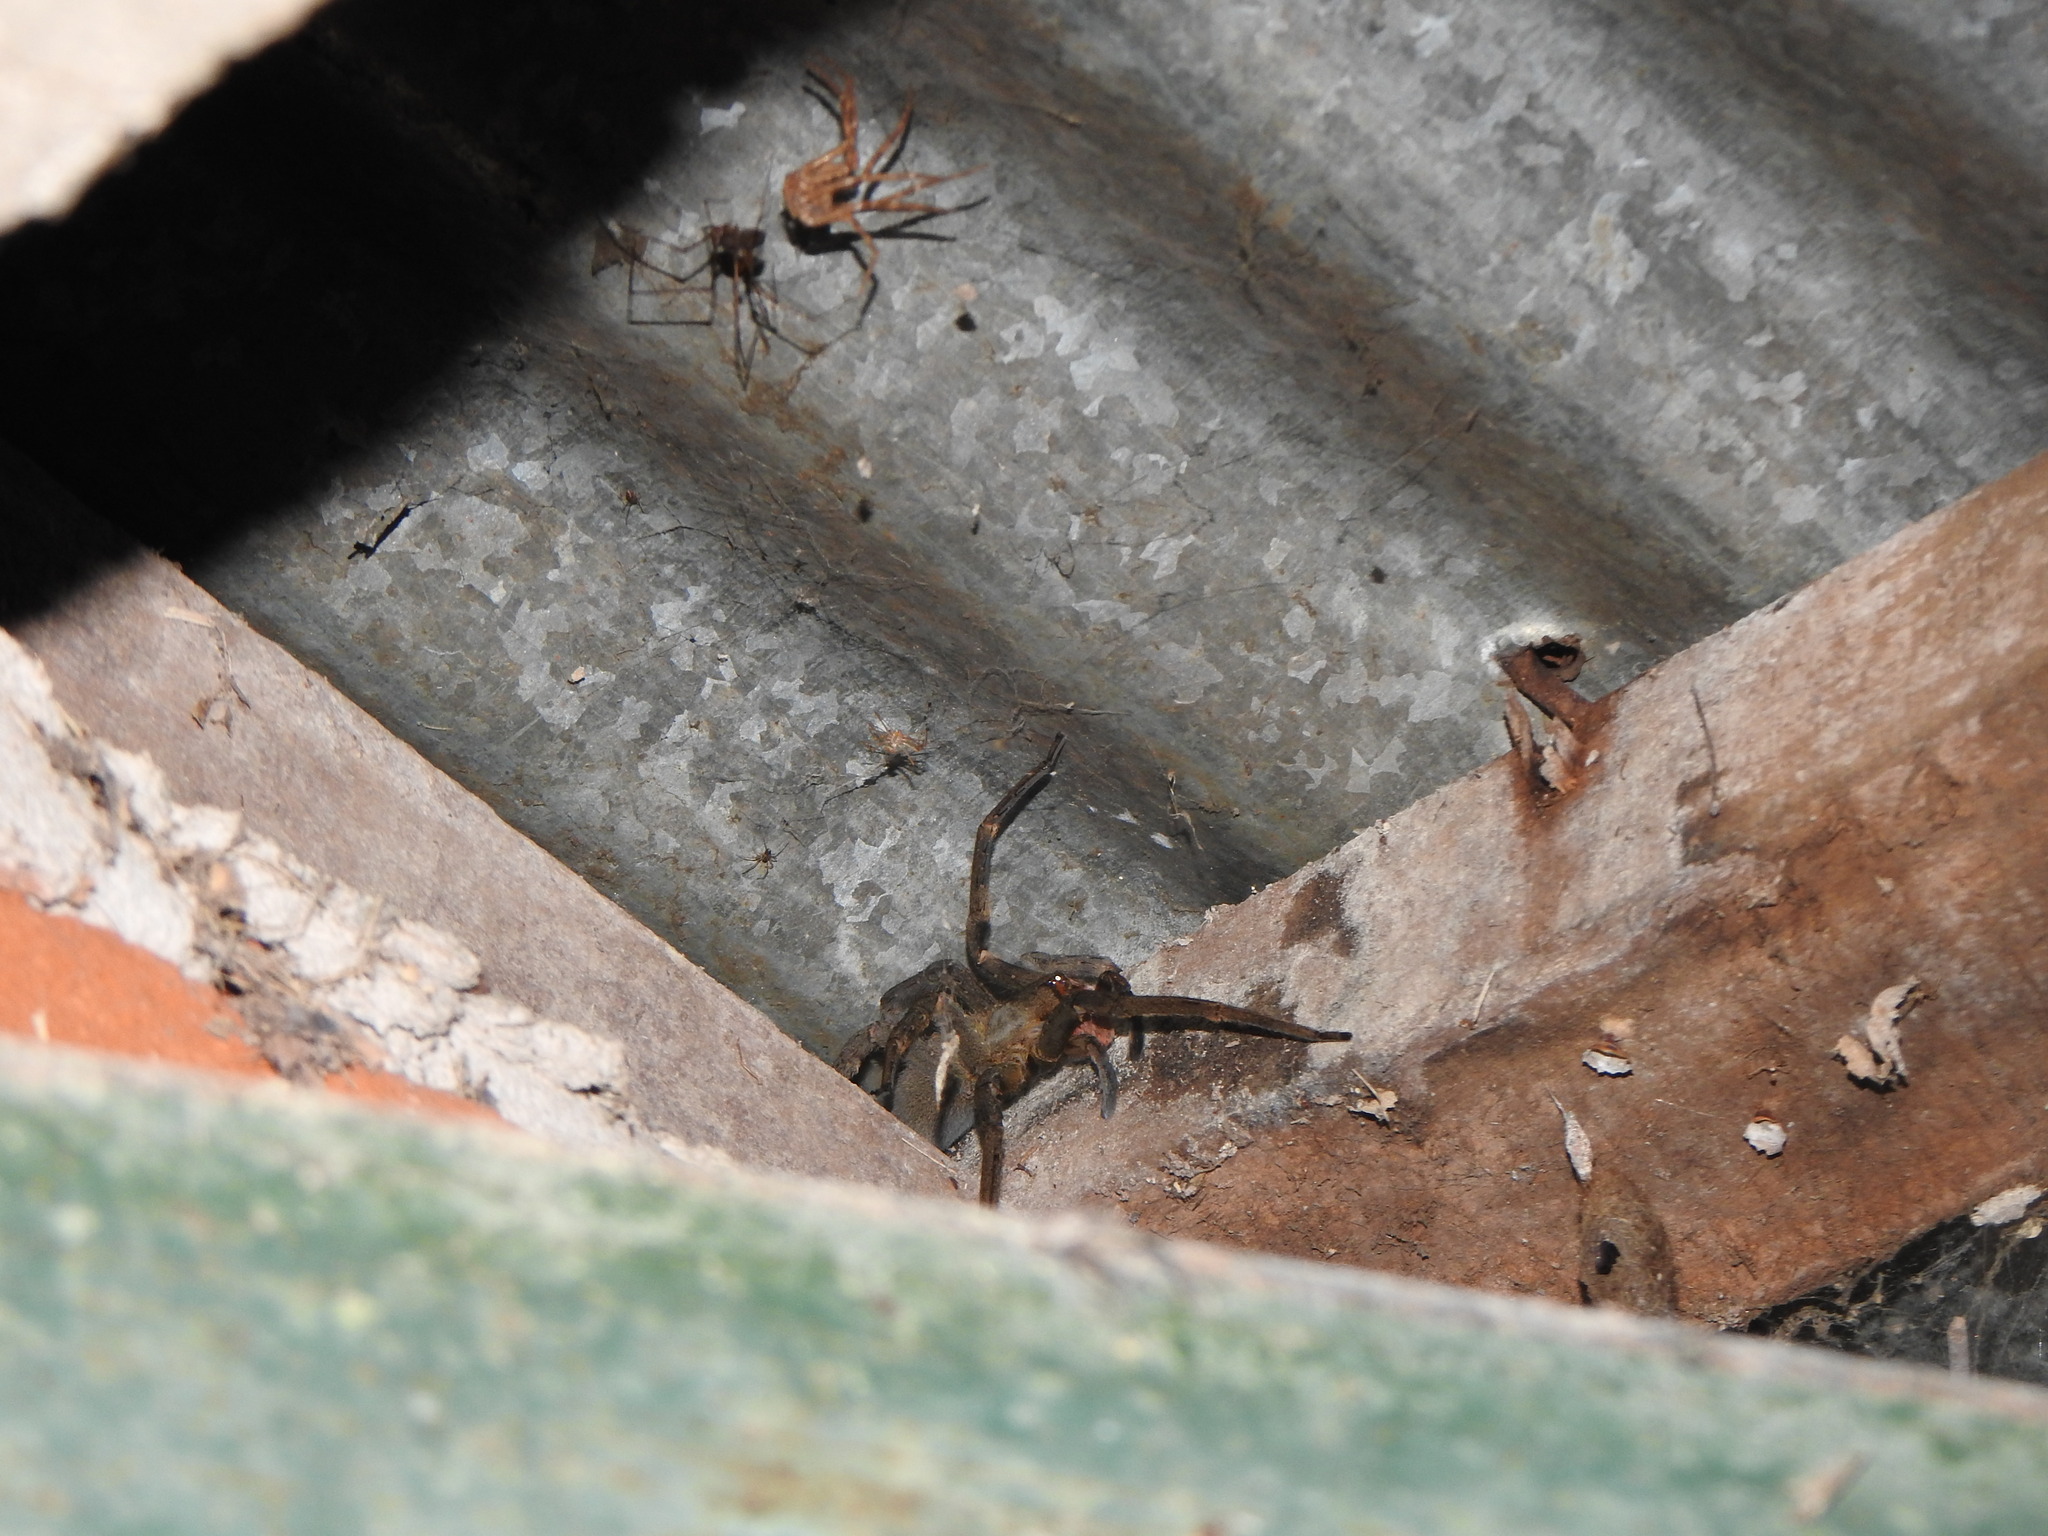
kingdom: Animalia
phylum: Arthropoda
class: Arachnida
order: Araneae
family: Ctenidae
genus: Phoneutria
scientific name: Phoneutria nigriventer
